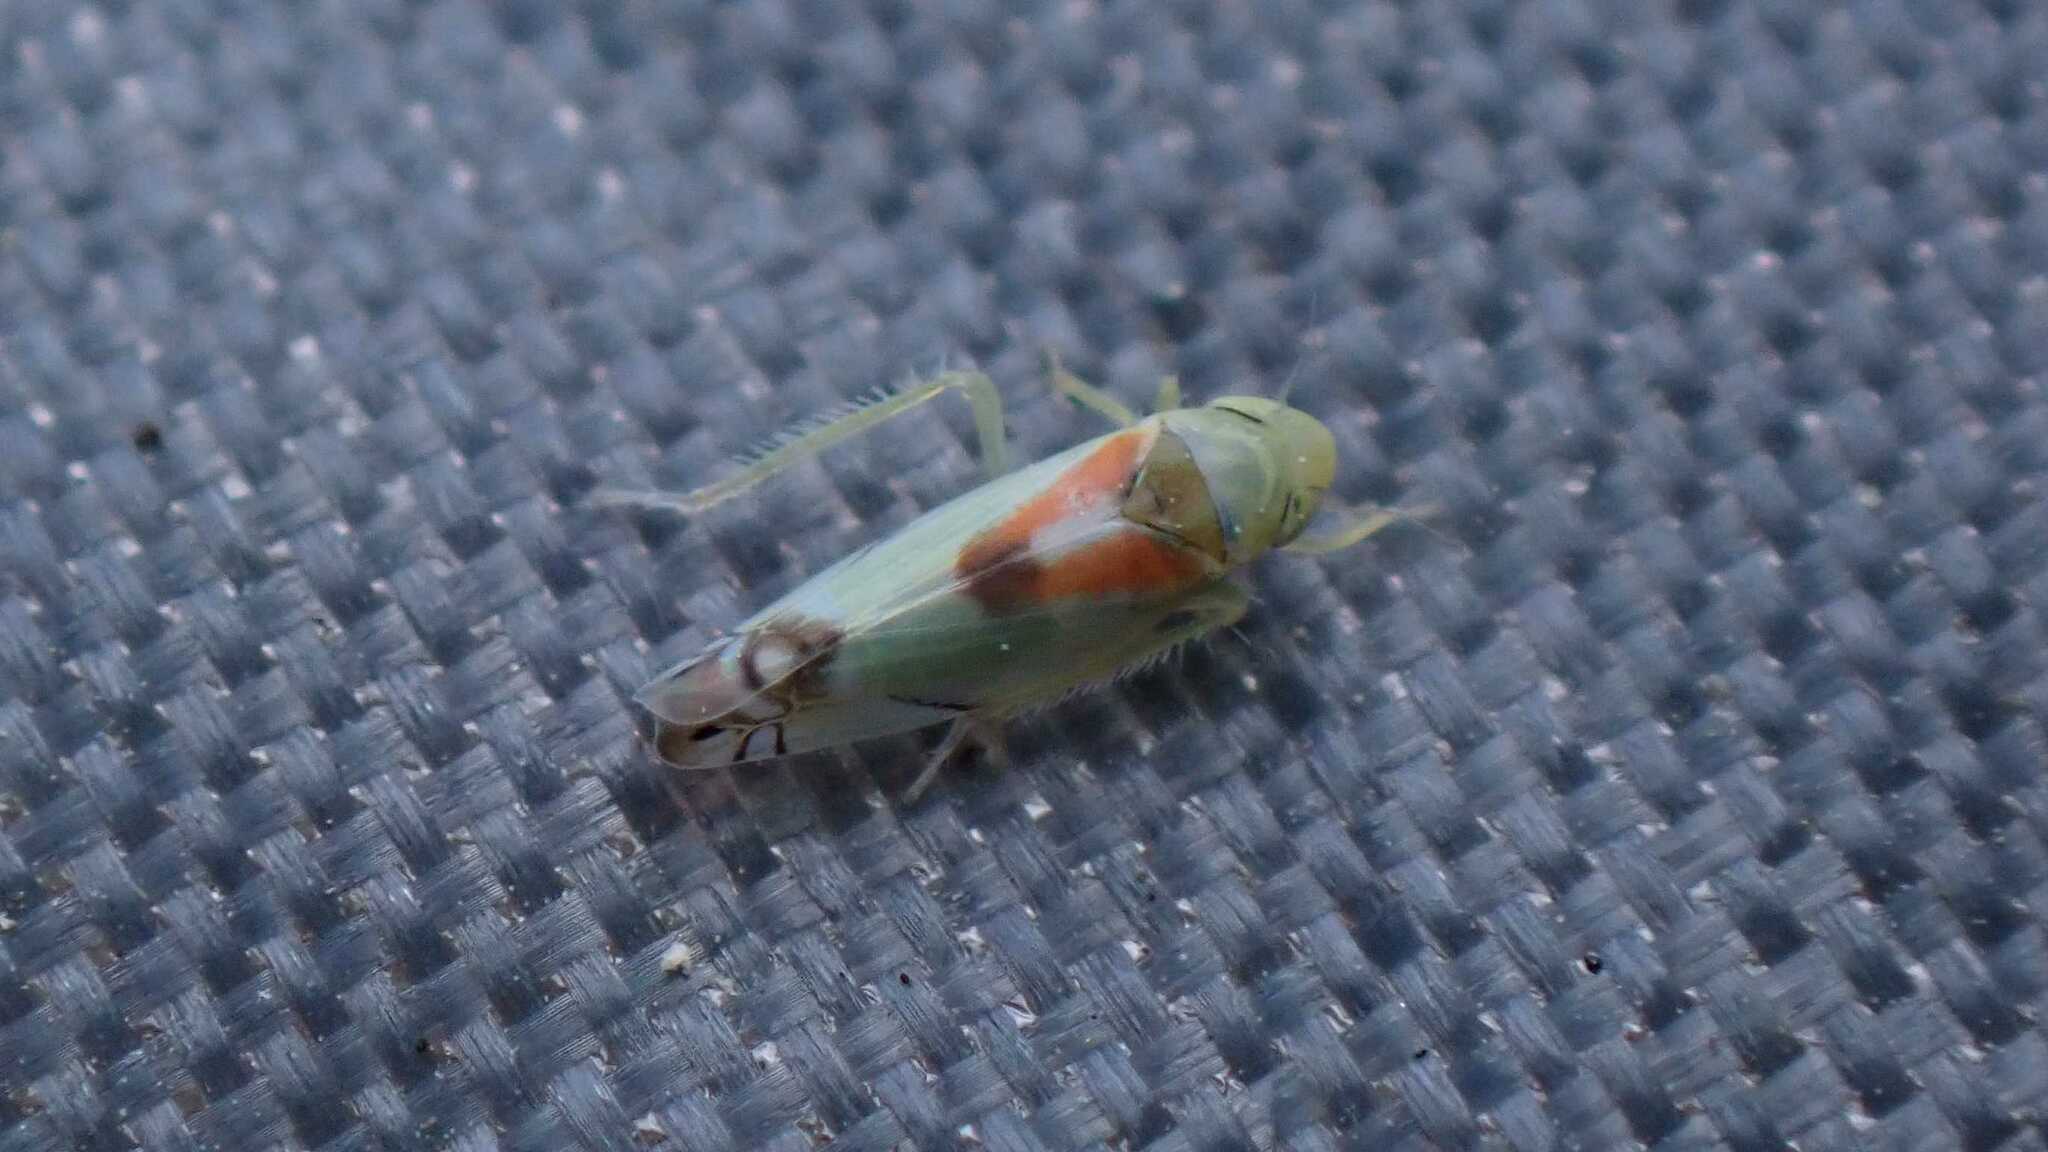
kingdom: Animalia
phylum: Arthropoda
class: Insecta
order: Hemiptera
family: Cicadellidae
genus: Zyginella
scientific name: Zyginella pulchra
